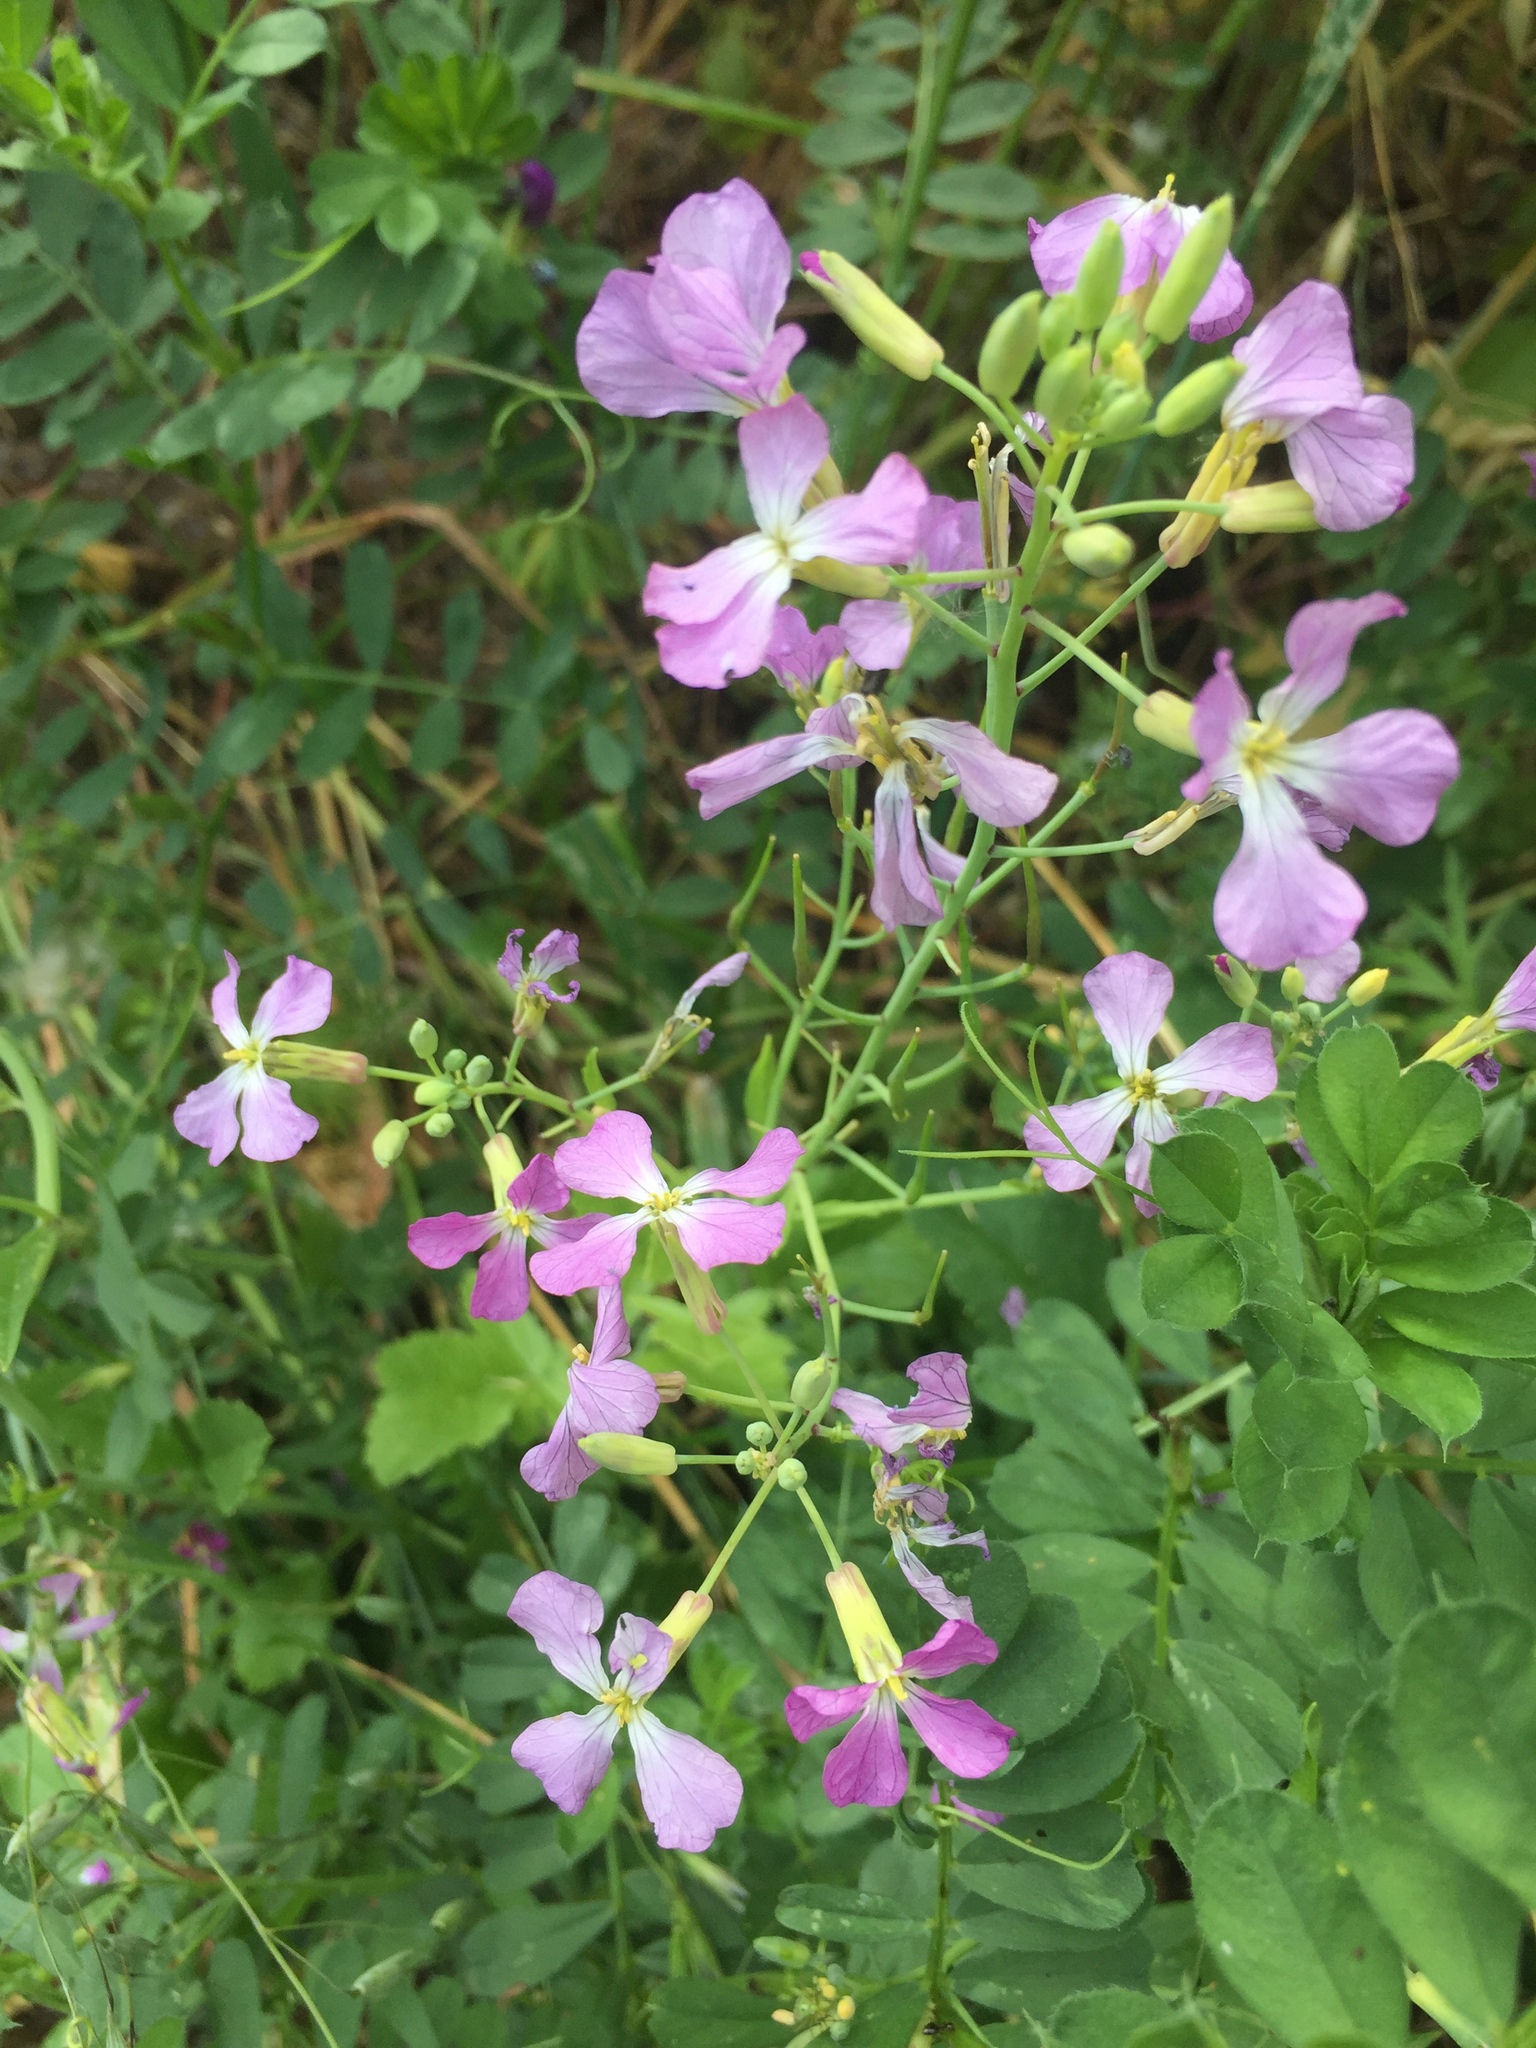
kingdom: Plantae
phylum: Tracheophyta
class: Magnoliopsida
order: Brassicales
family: Brassicaceae
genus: Raphanus
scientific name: Raphanus sativus
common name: Cultivated radish
